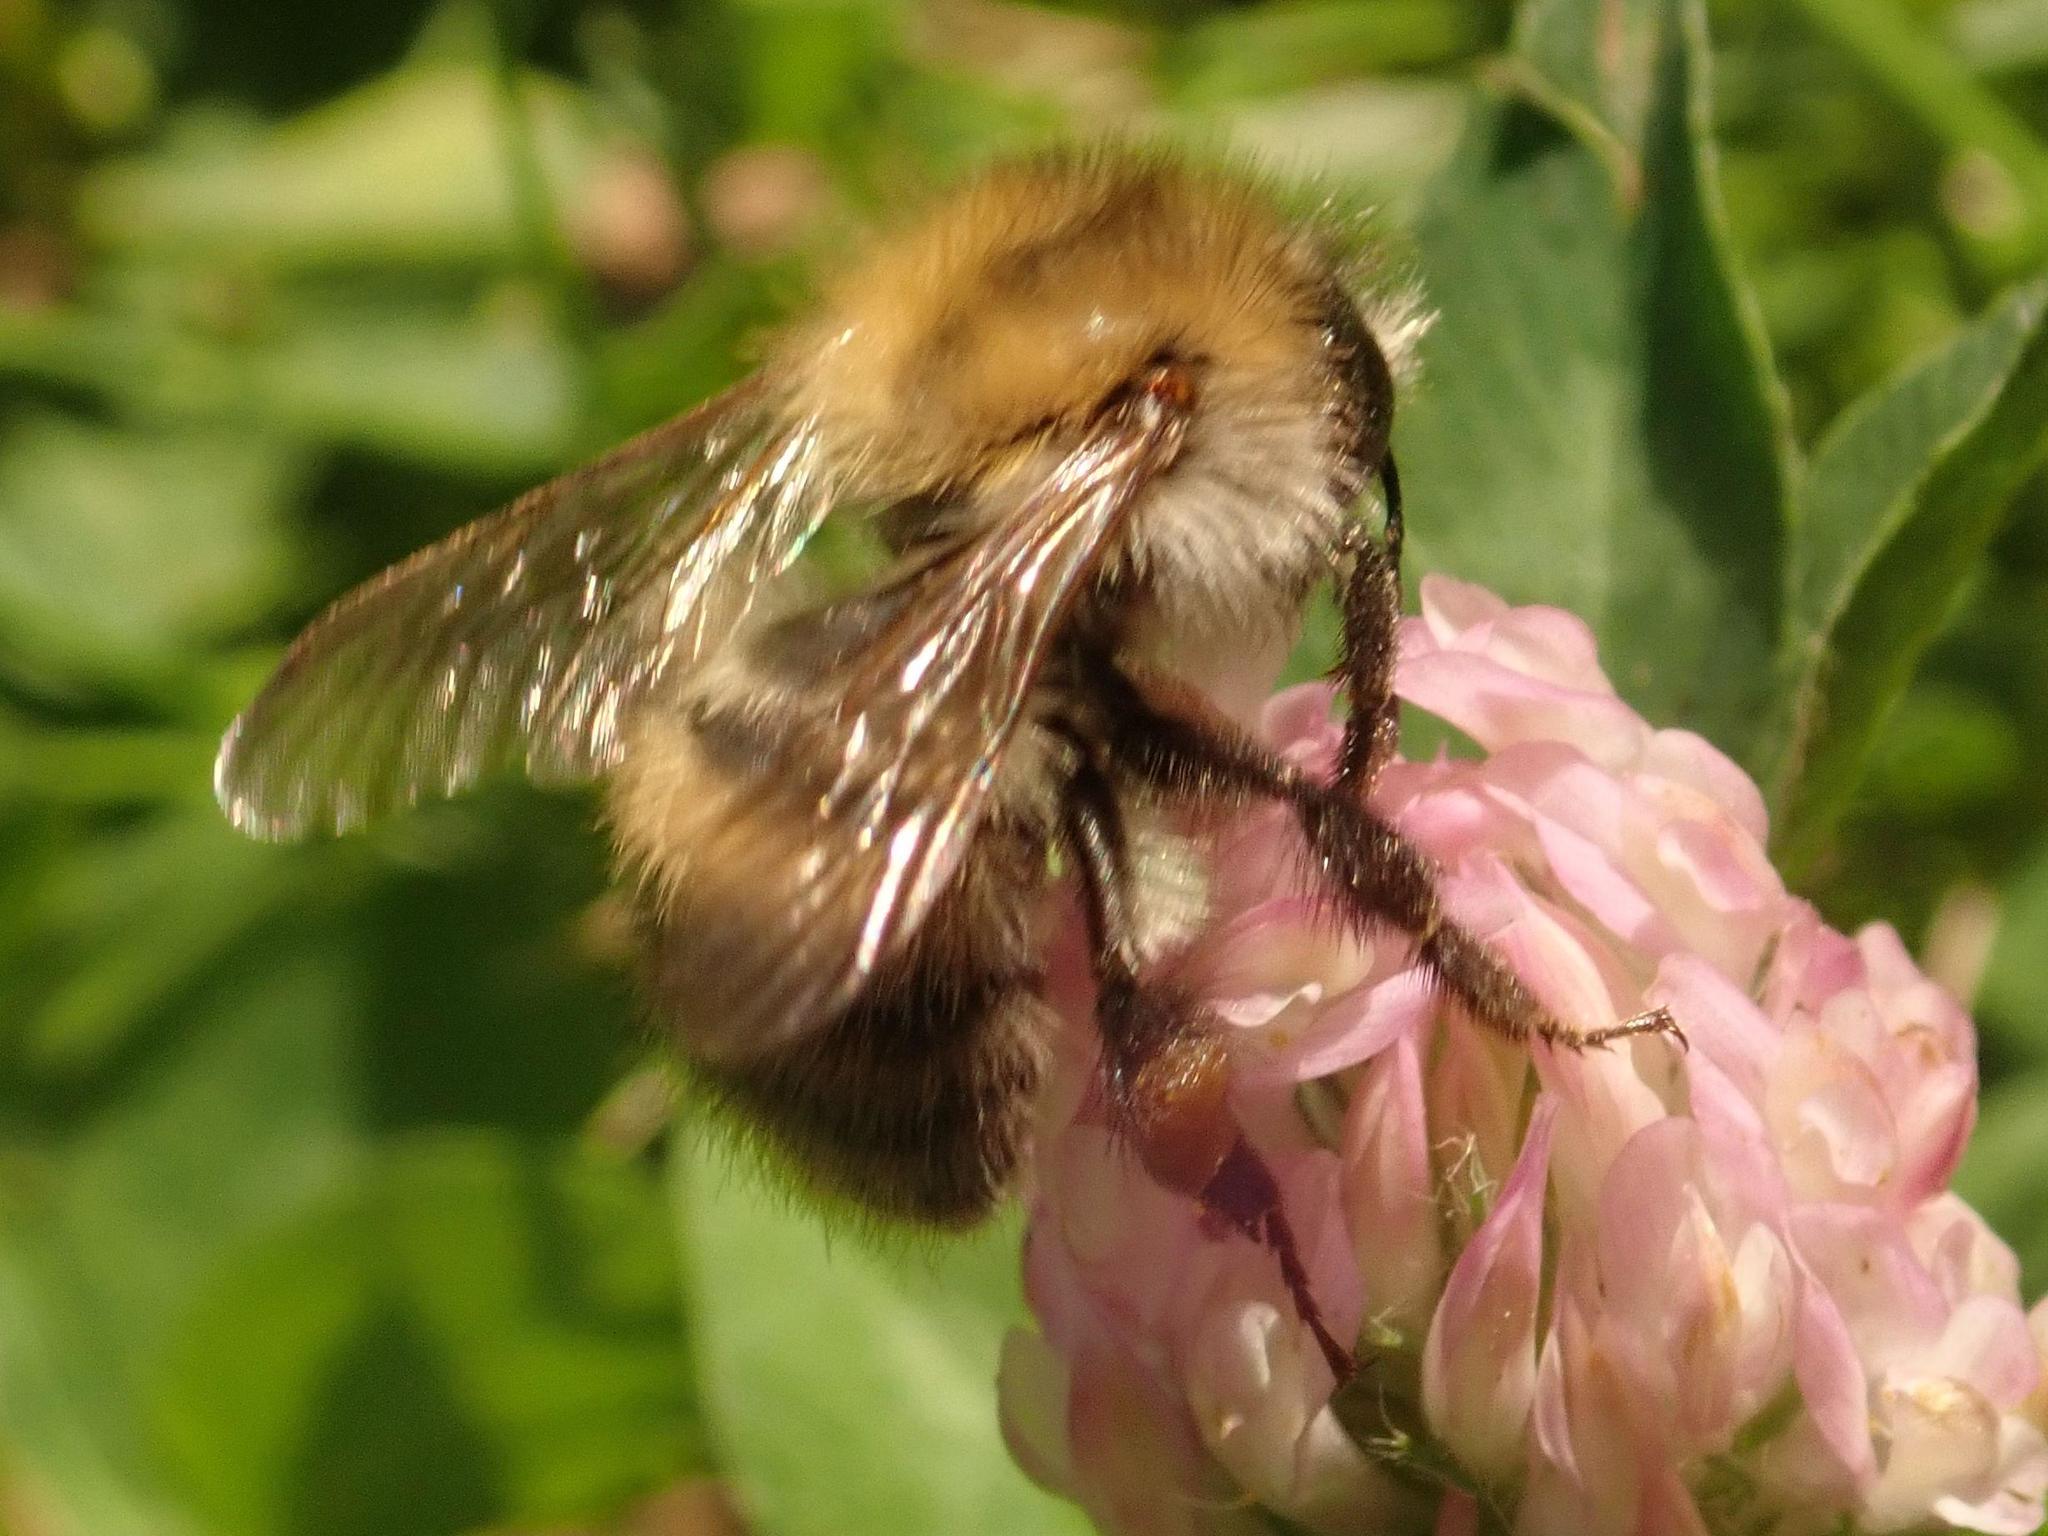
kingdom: Animalia
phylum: Arthropoda
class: Insecta
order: Hymenoptera
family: Apidae
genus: Bombus
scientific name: Bombus pascuorum
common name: Common carder bee
